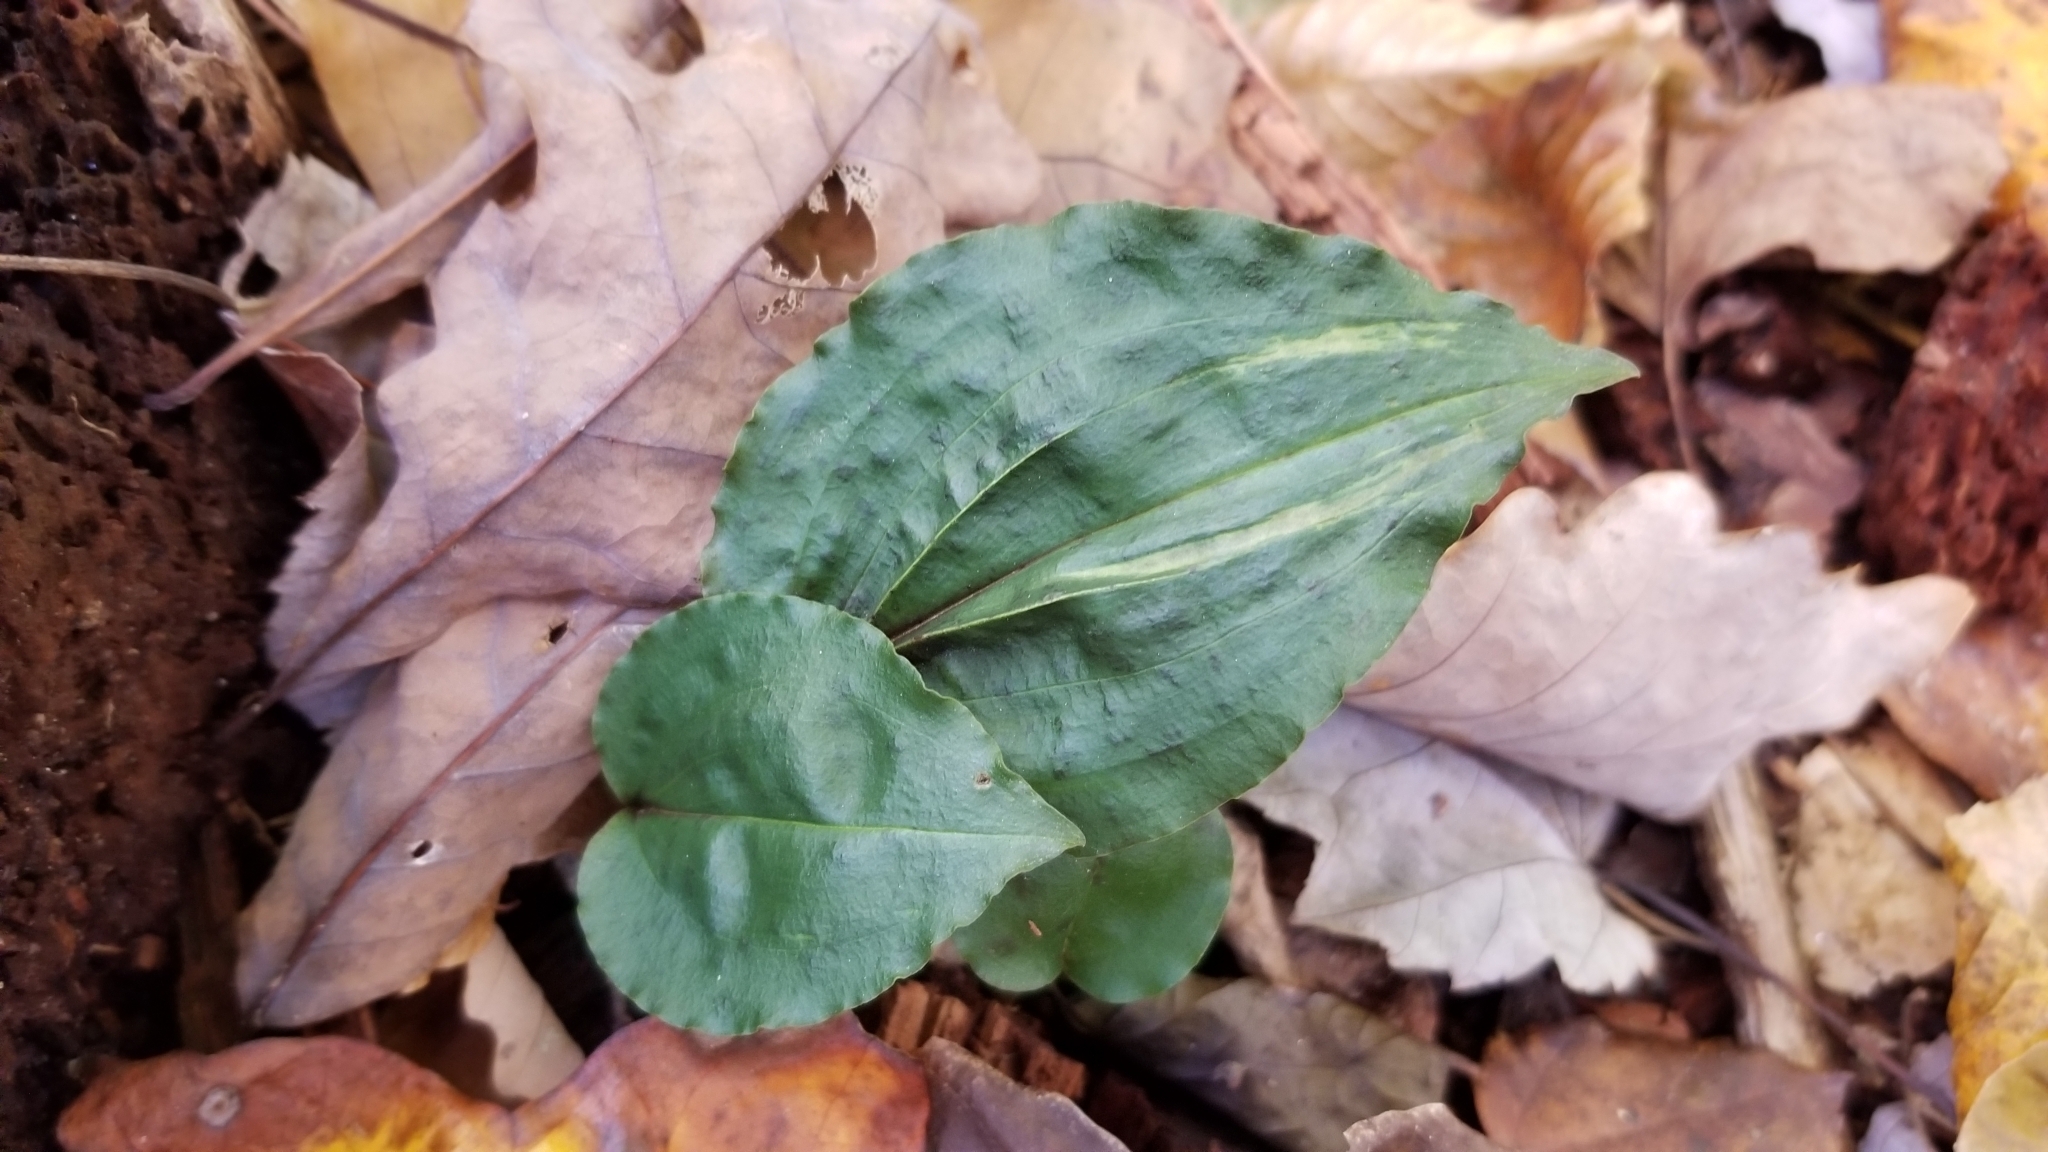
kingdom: Plantae
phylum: Tracheophyta
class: Liliopsida
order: Asparagales
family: Orchidaceae
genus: Tipularia
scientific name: Tipularia discolor
